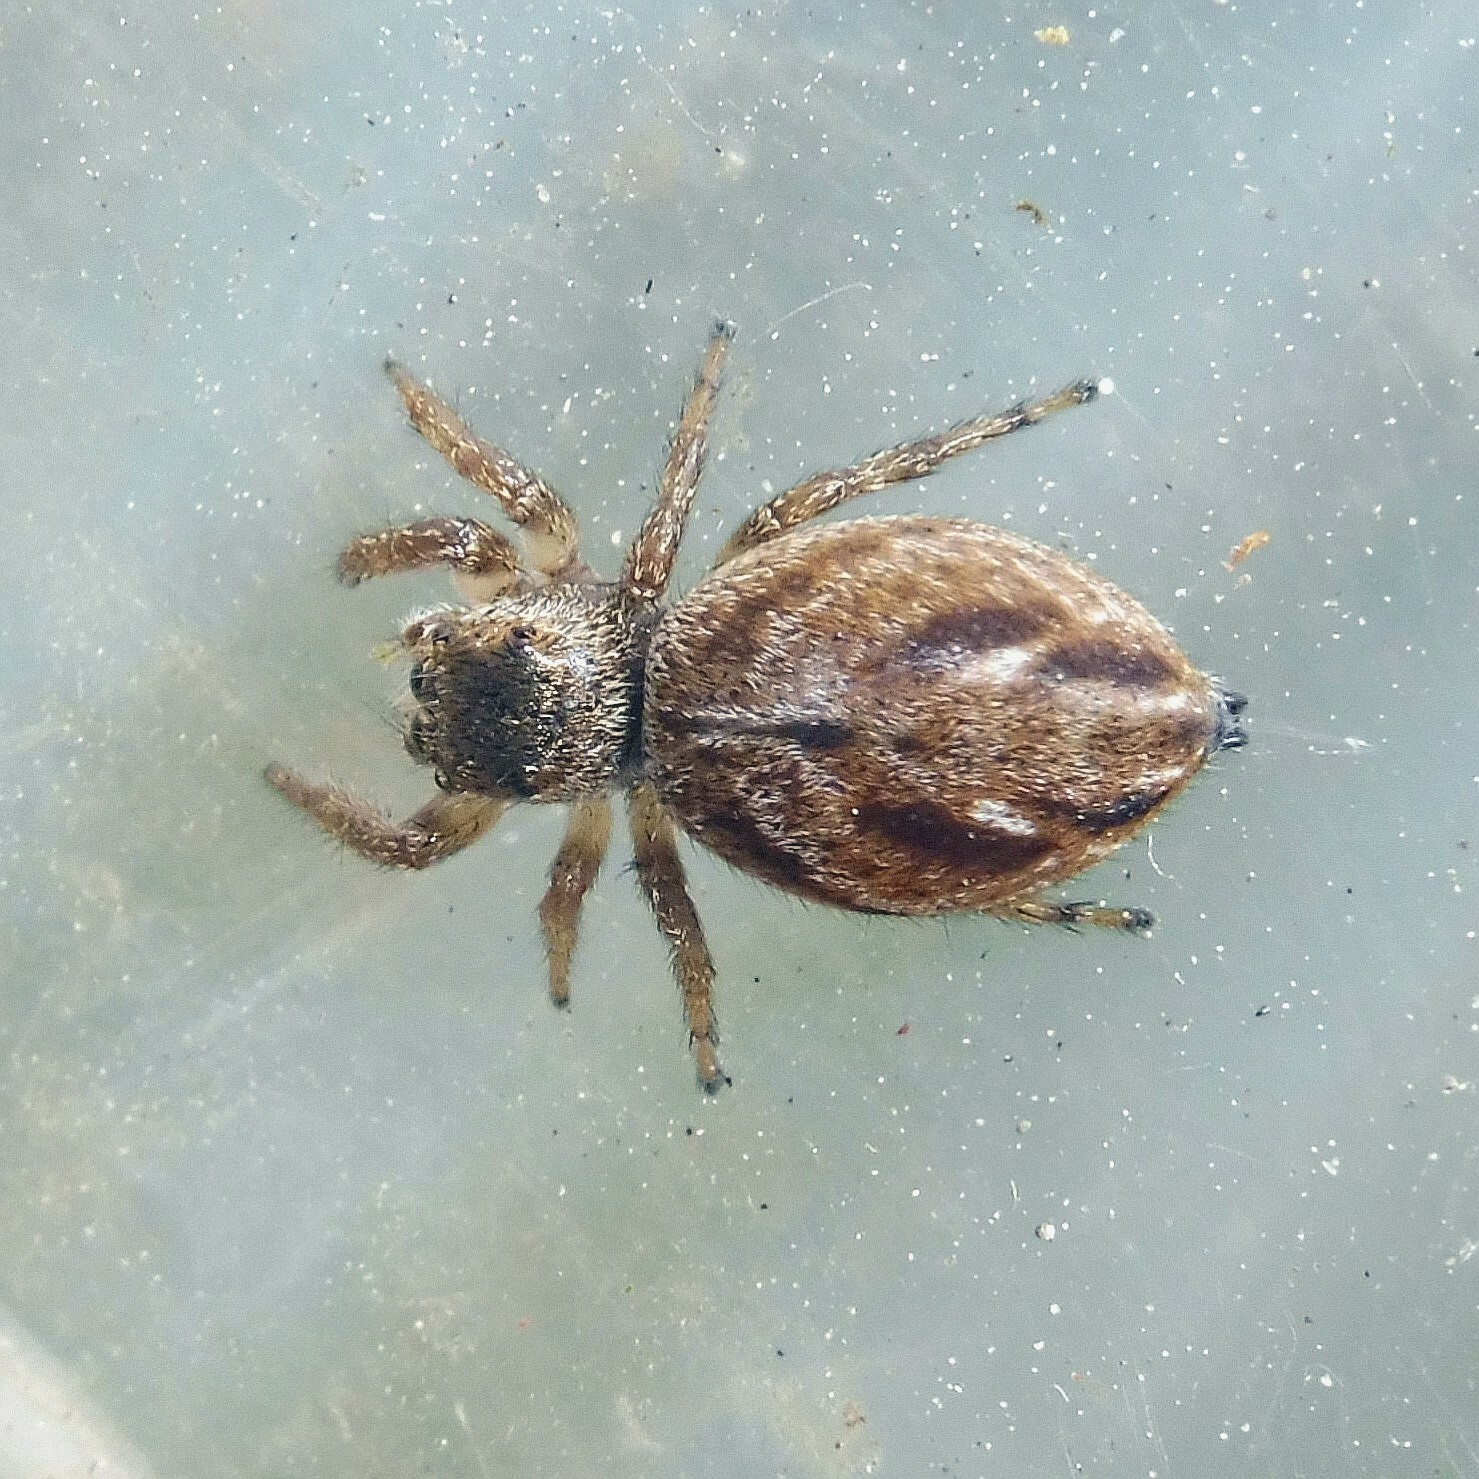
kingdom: Animalia
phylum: Arthropoda
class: Arachnida
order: Araneae
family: Salticidae
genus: Evarcha
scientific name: Evarcha arcuata
